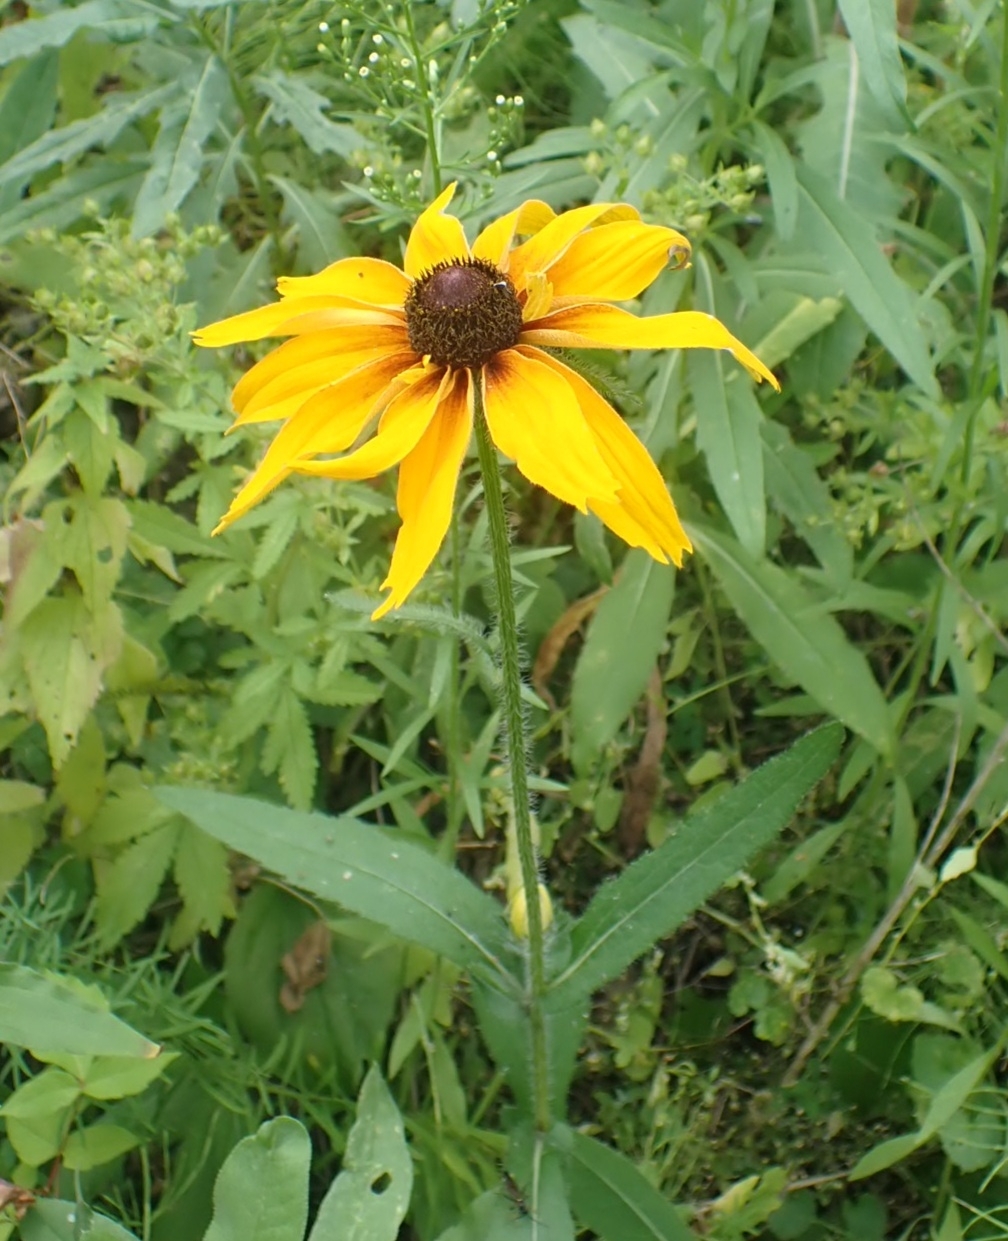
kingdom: Plantae
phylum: Tracheophyta
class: Magnoliopsida
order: Asterales
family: Asteraceae
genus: Rudbeckia
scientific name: Rudbeckia hirta
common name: Black-eyed-susan
